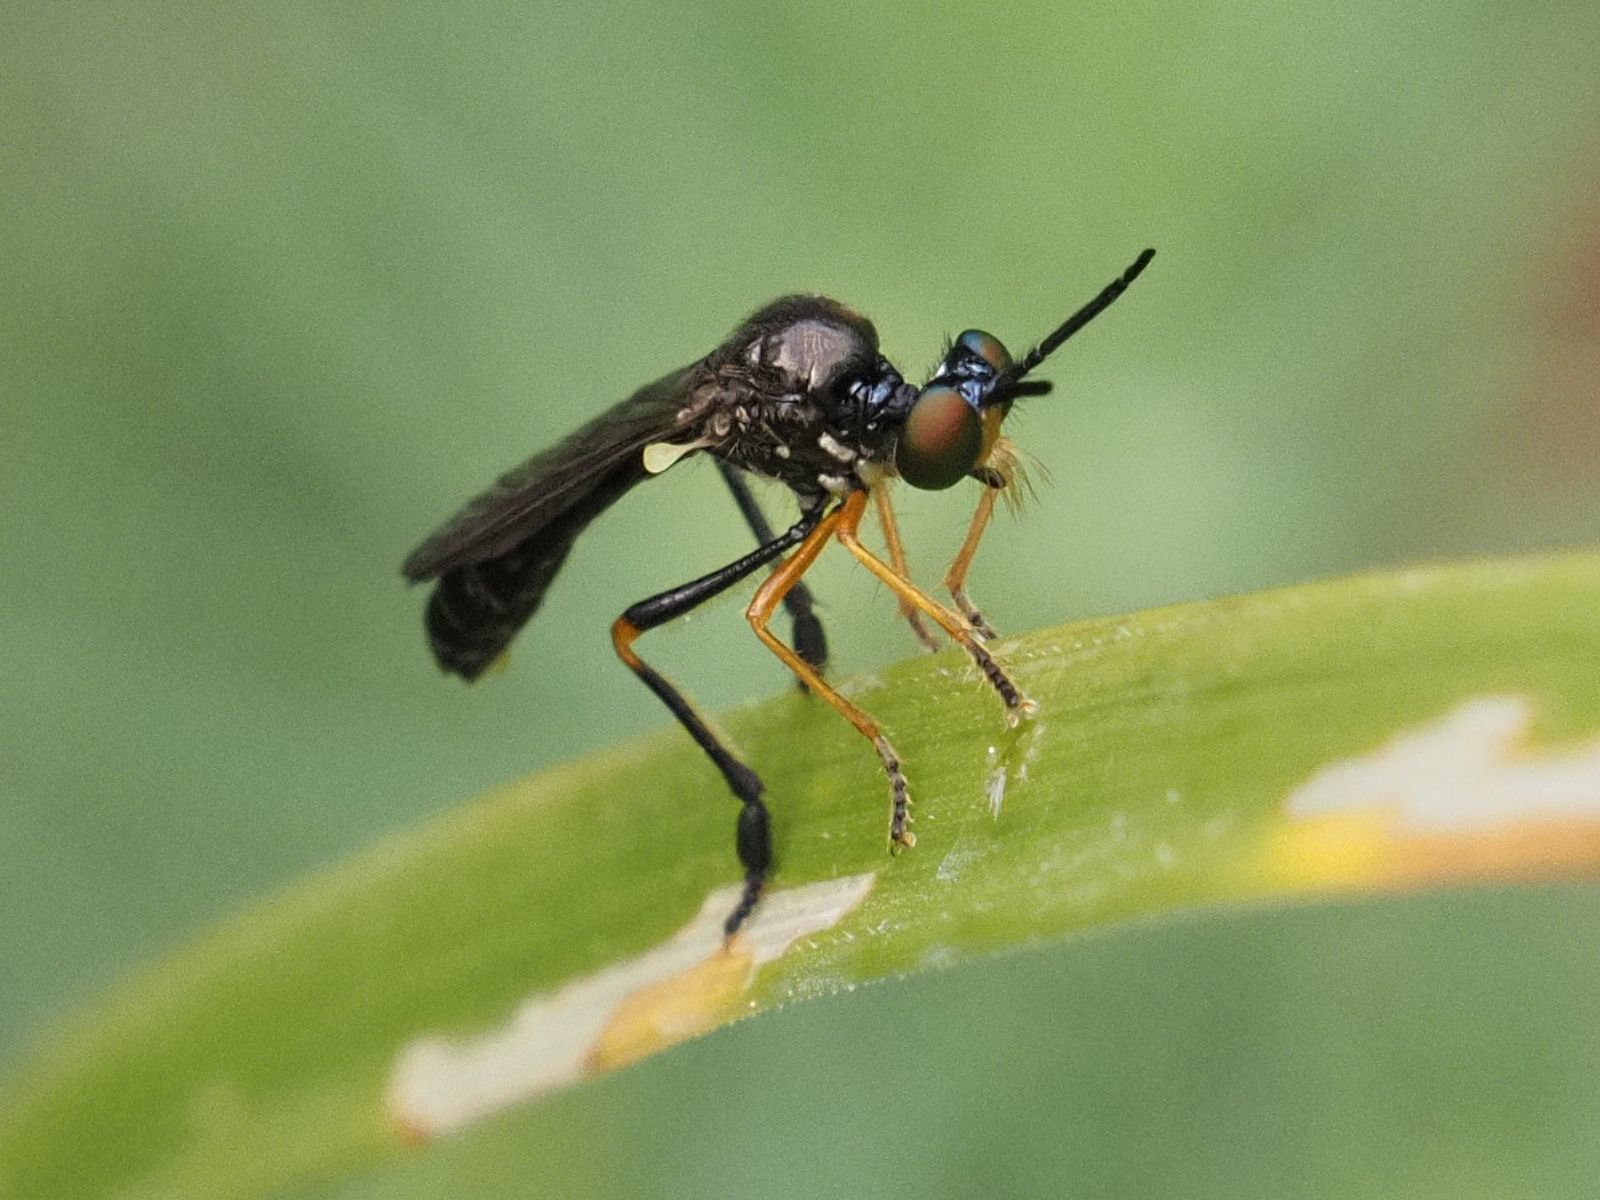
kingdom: Animalia
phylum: Arthropoda
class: Insecta
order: Diptera
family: Asilidae
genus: Dioctria
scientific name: Dioctria longicornis
